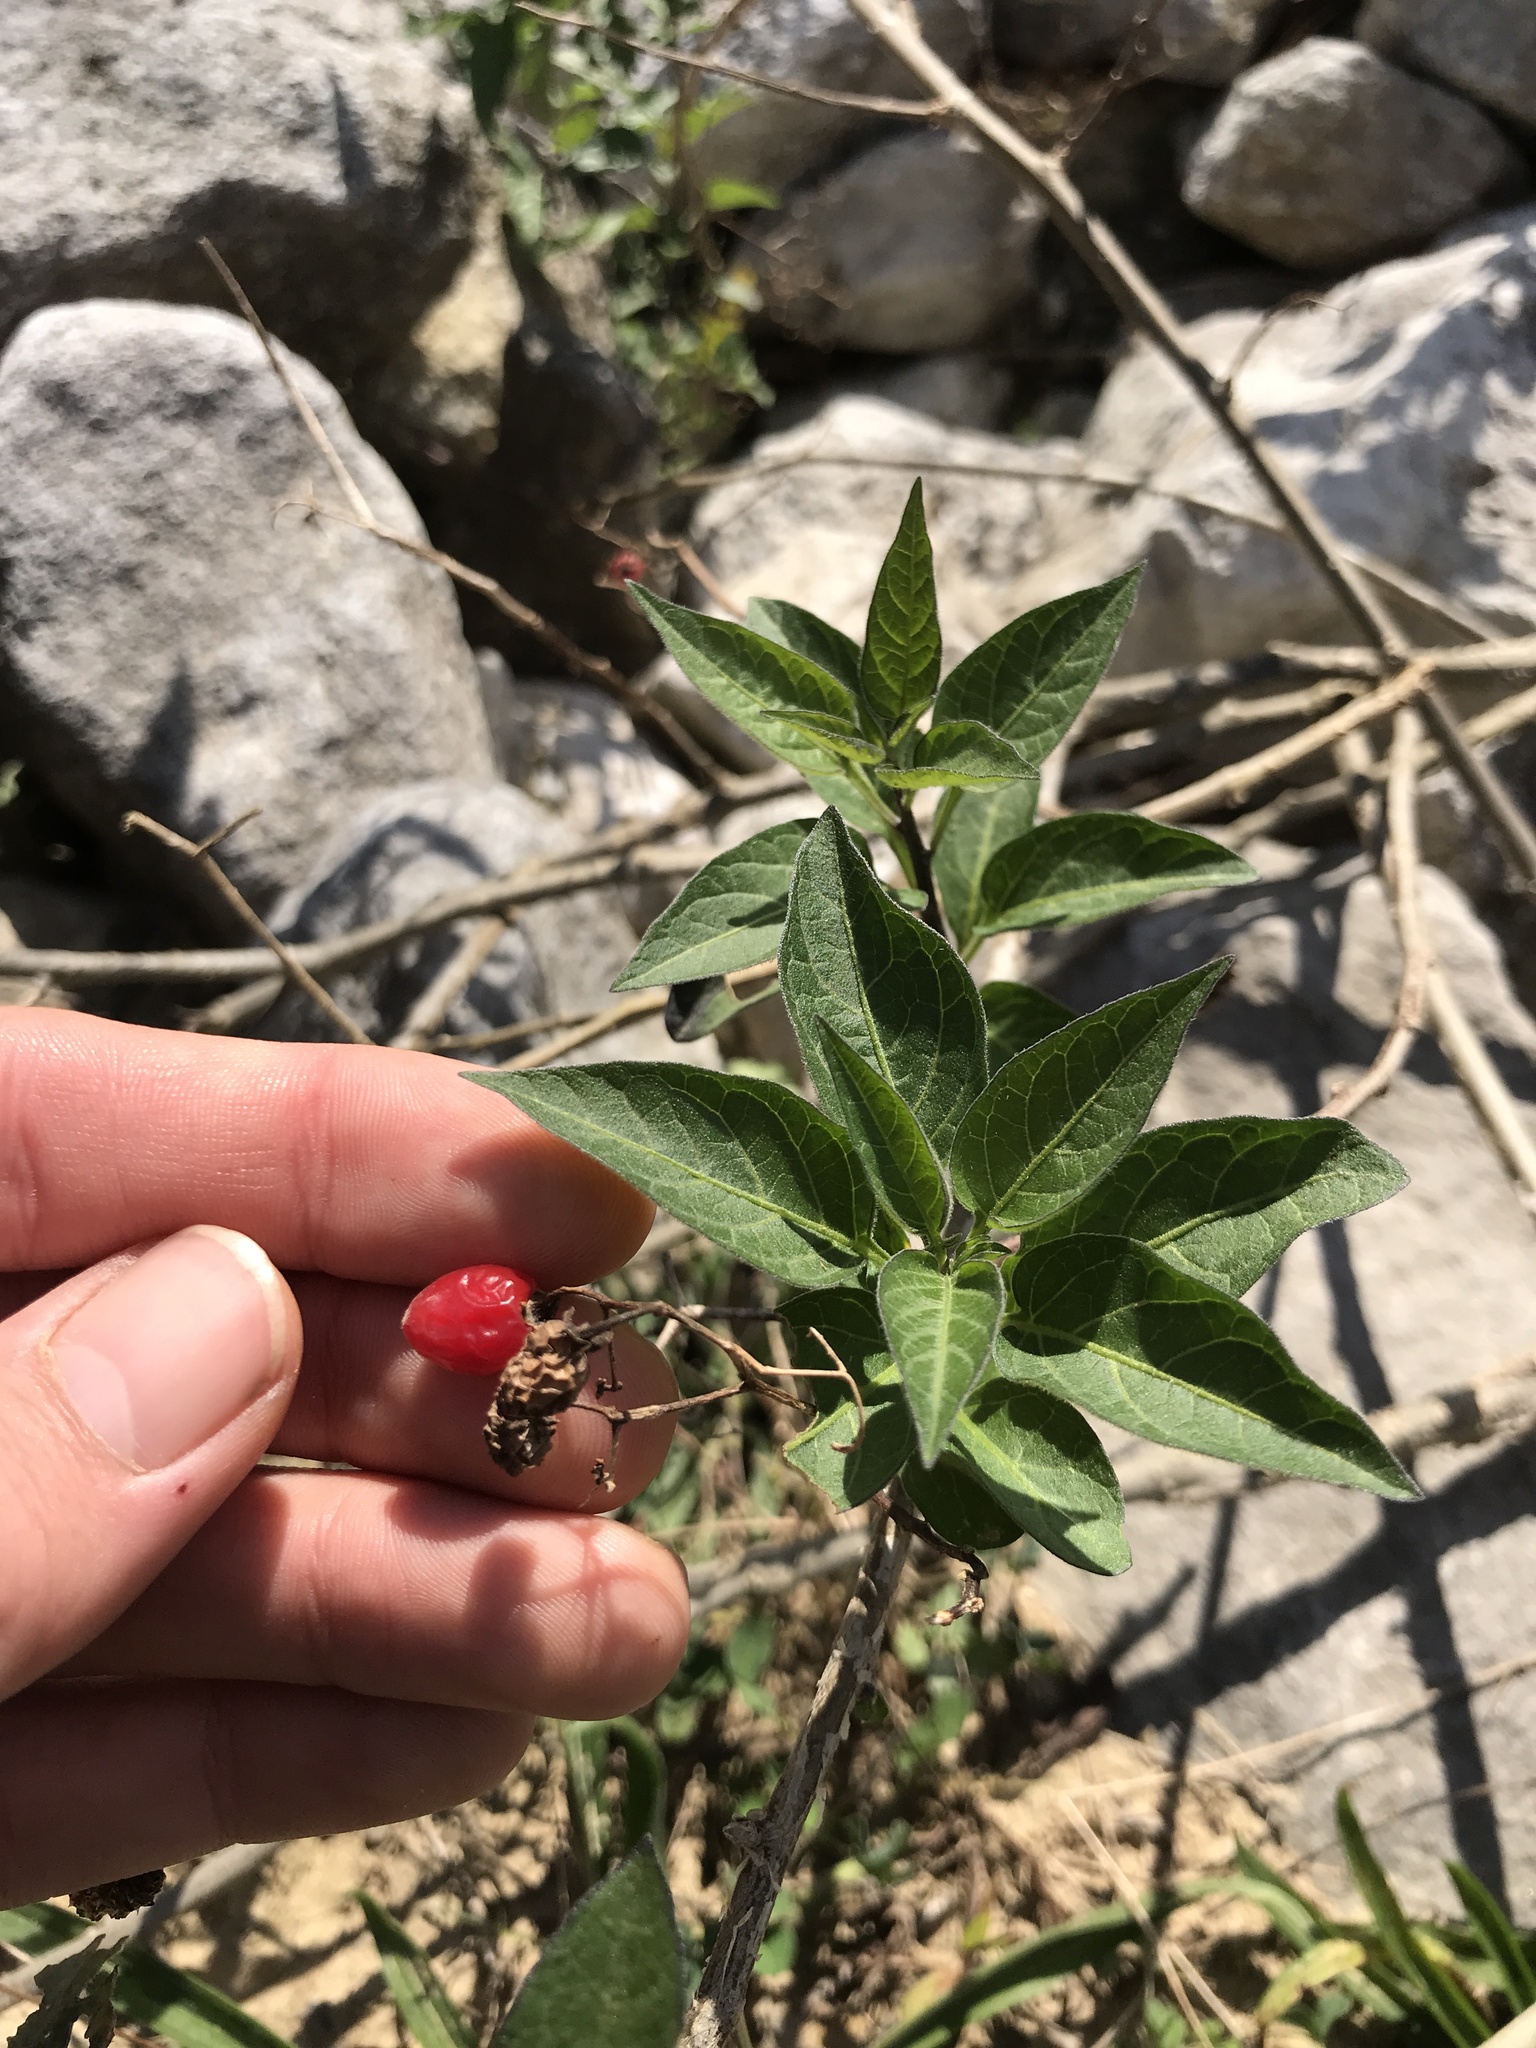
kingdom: Plantae
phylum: Tracheophyta
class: Magnoliopsida
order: Solanales
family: Solanaceae
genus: Solanum
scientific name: Solanum dulcamara
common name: Climbing nightshade
